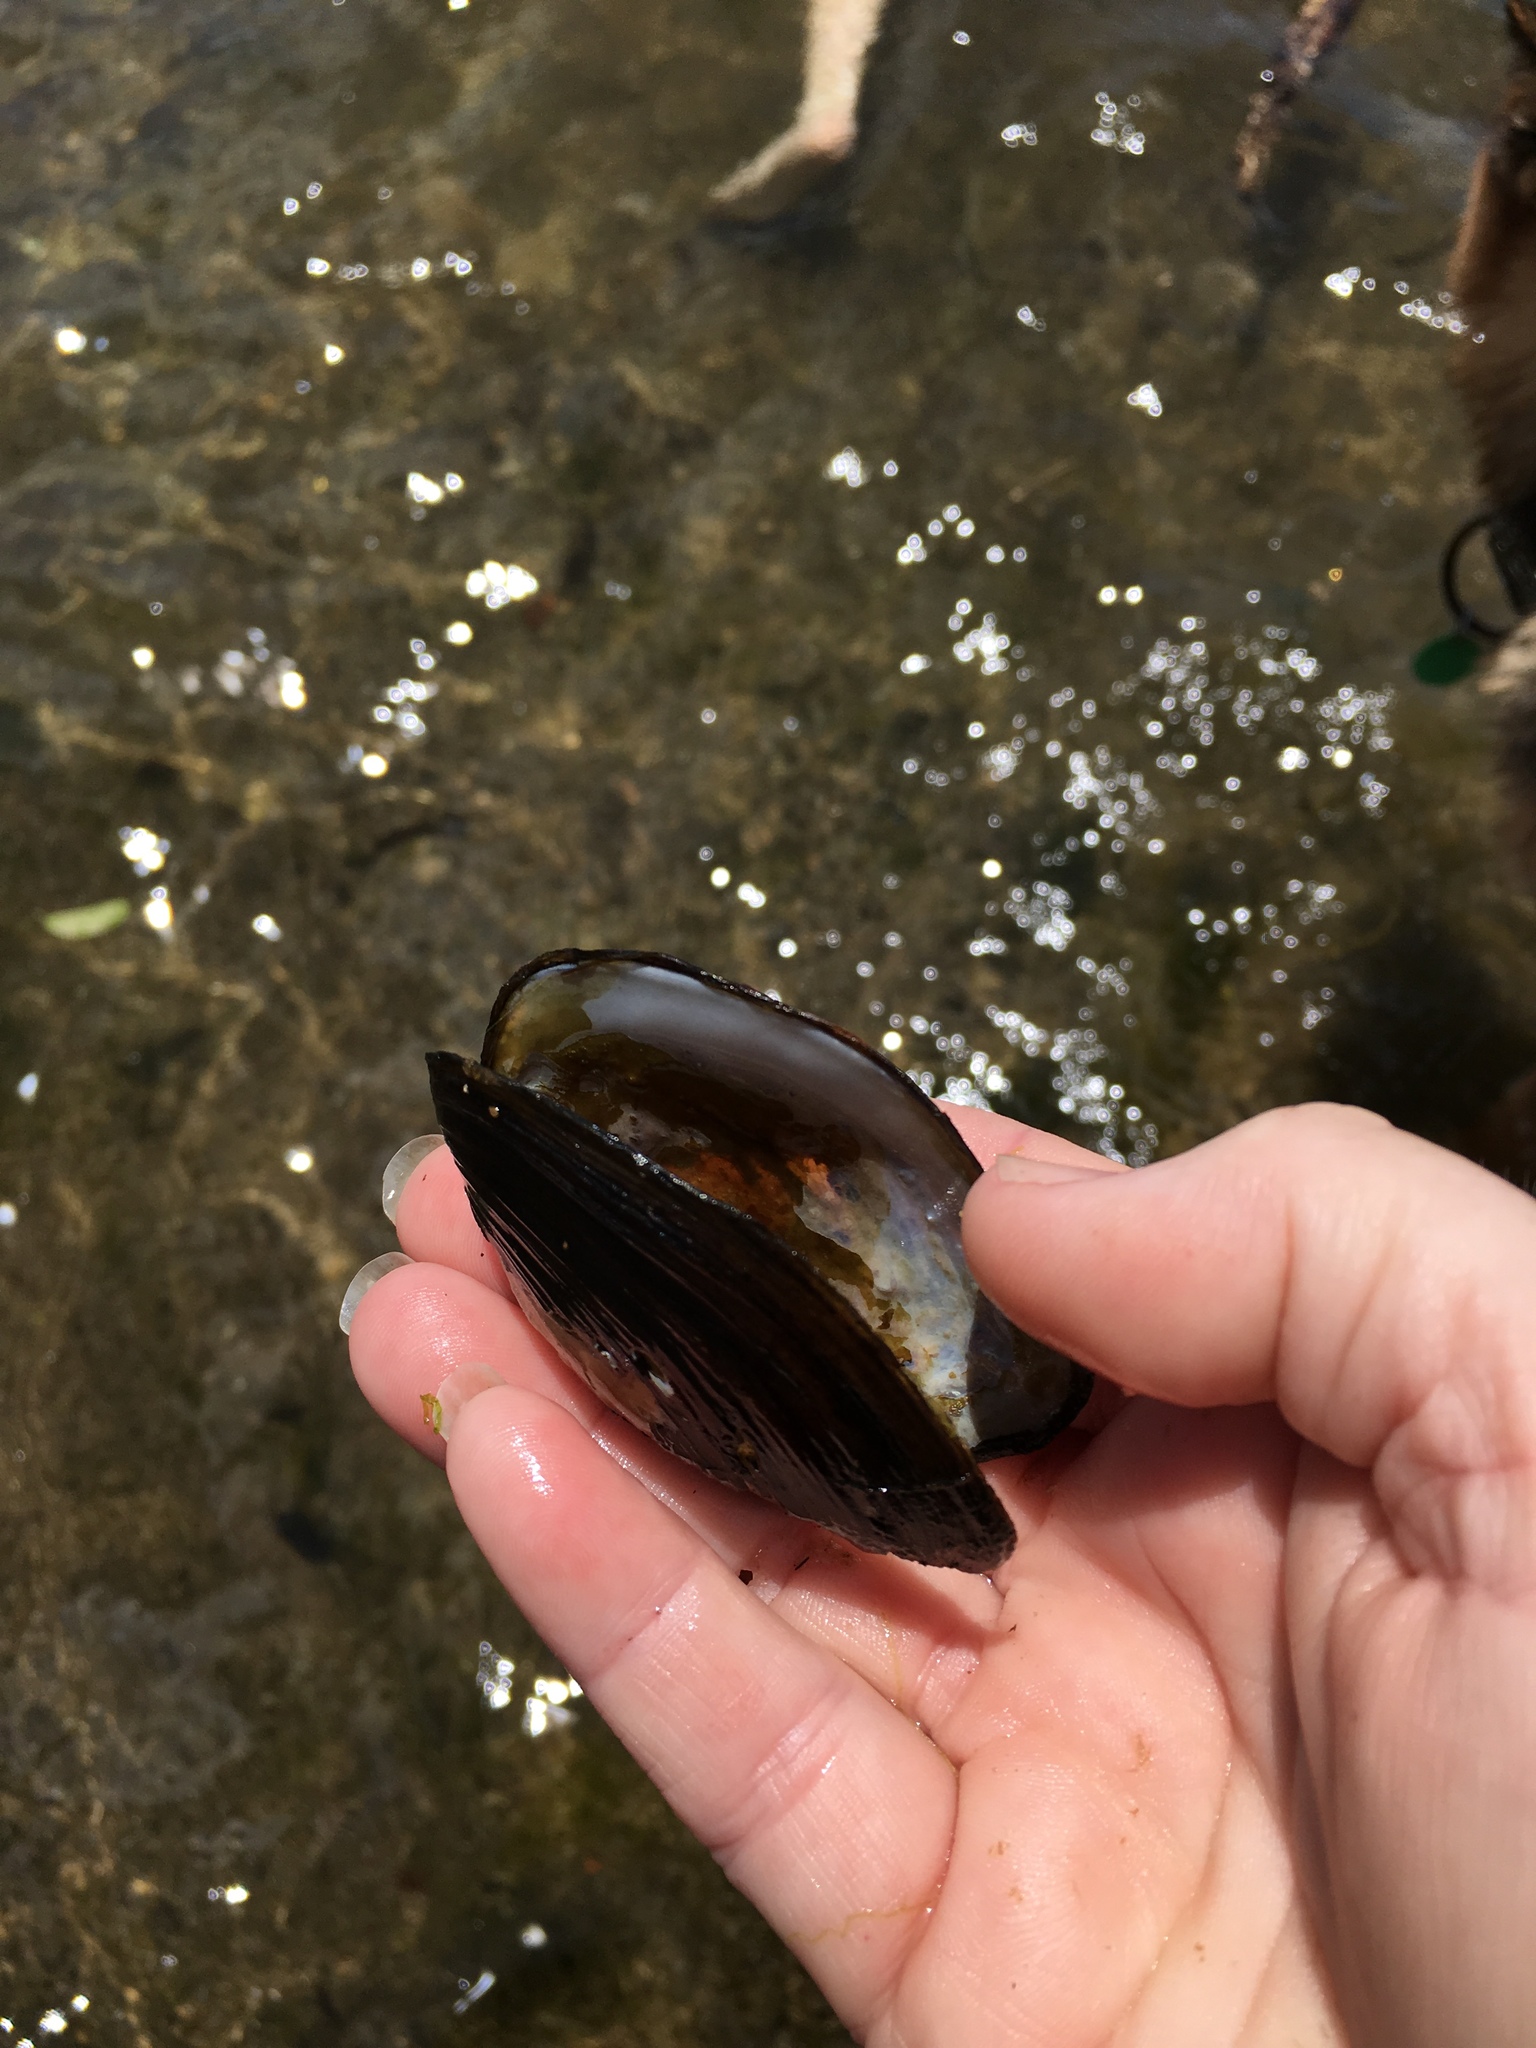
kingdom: Animalia
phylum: Mollusca
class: Bivalvia
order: Unionida
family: Hyriidae
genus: Echyridella
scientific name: Echyridella menziesii
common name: New zealand freshwater mussel
